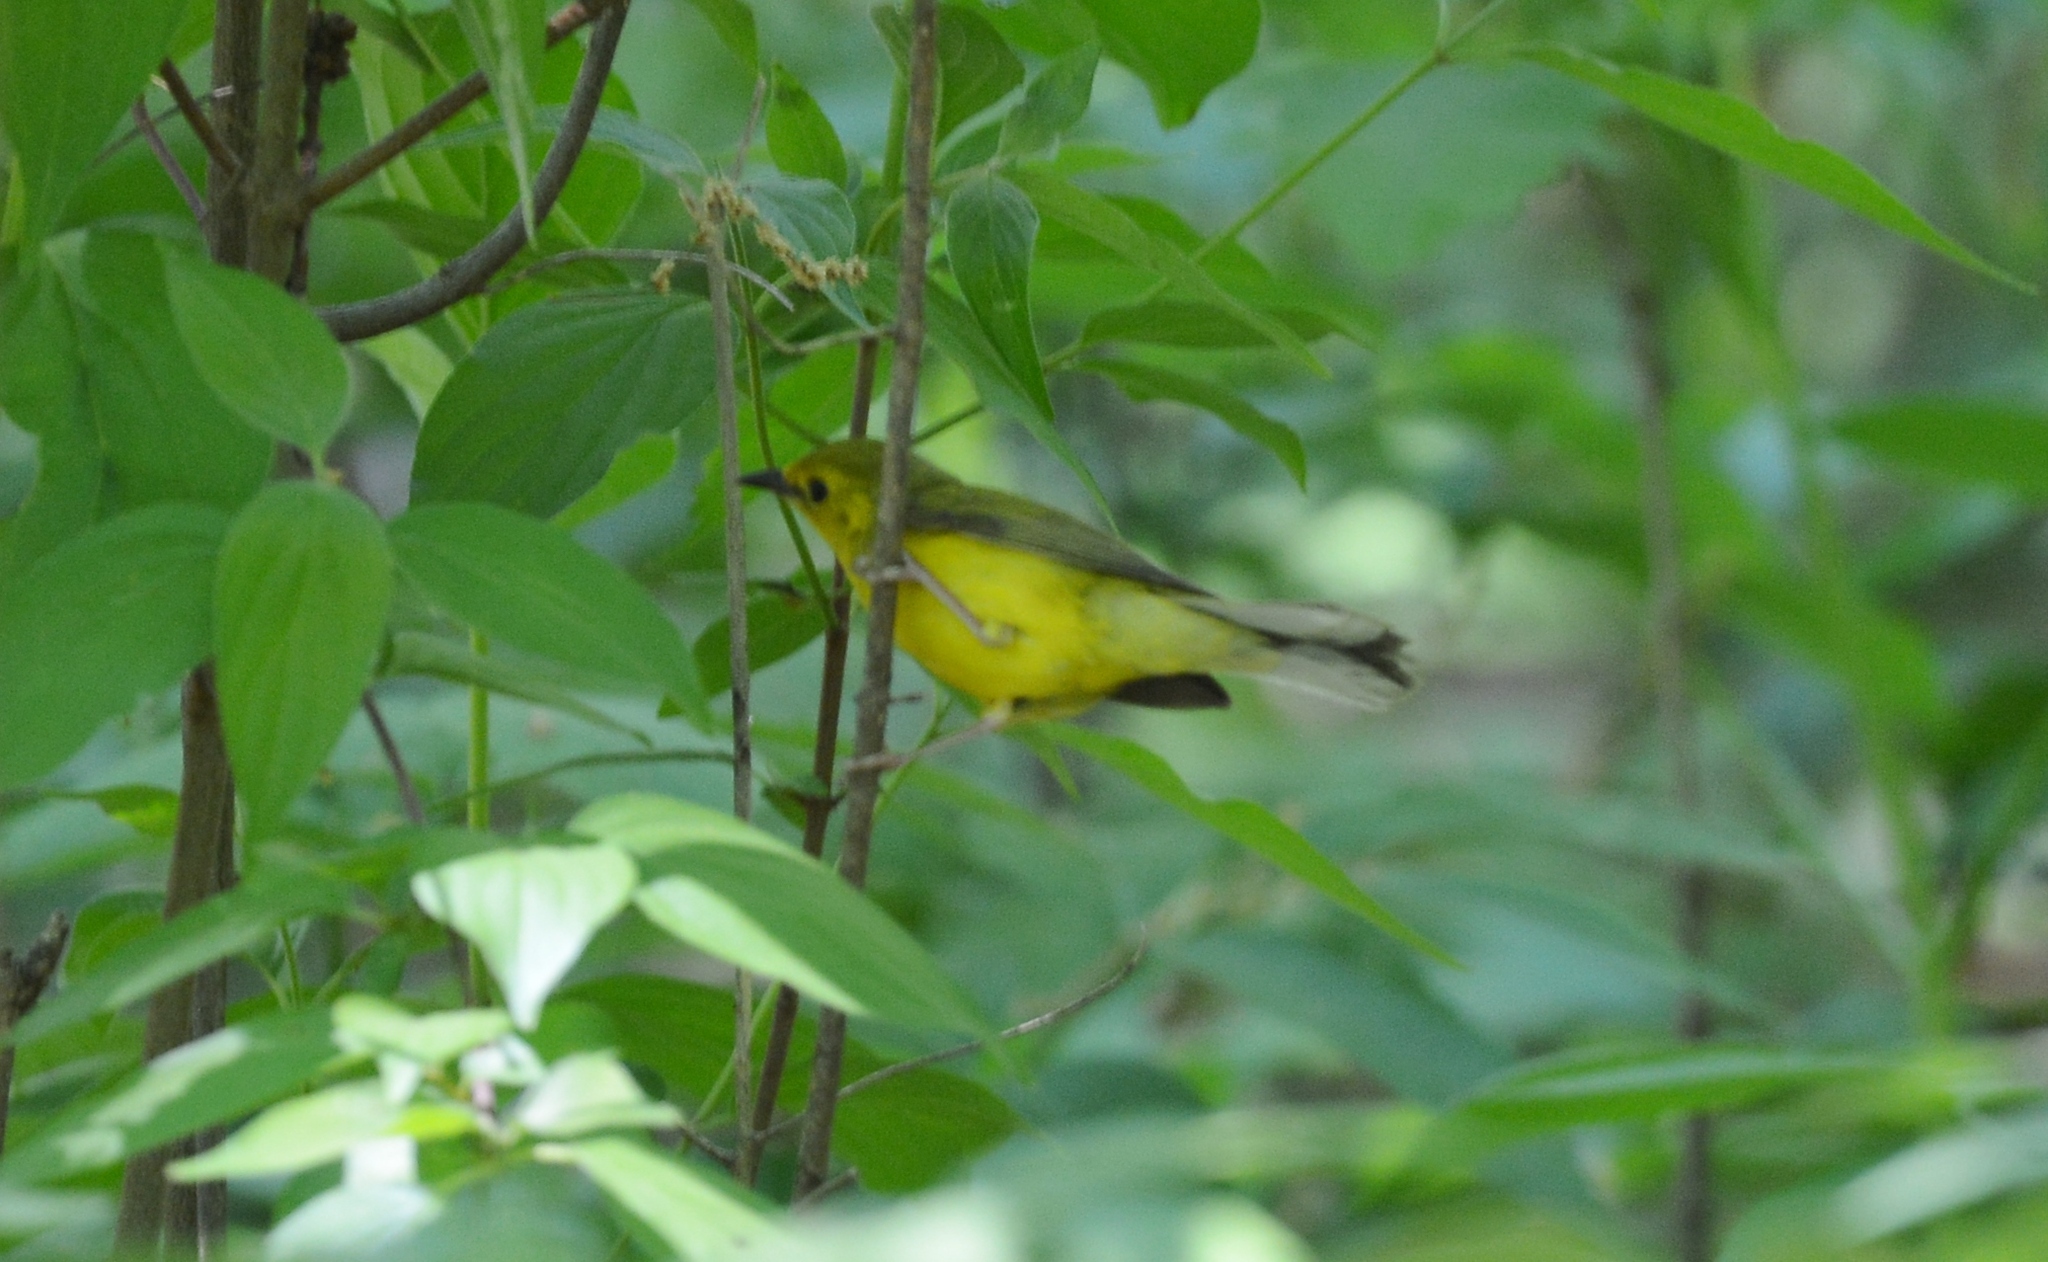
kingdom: Animalia
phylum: Chordata
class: Aves
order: Passeriformes
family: Parulidae
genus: Setophaga
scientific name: Setophaga citrina
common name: Hooded warbler
